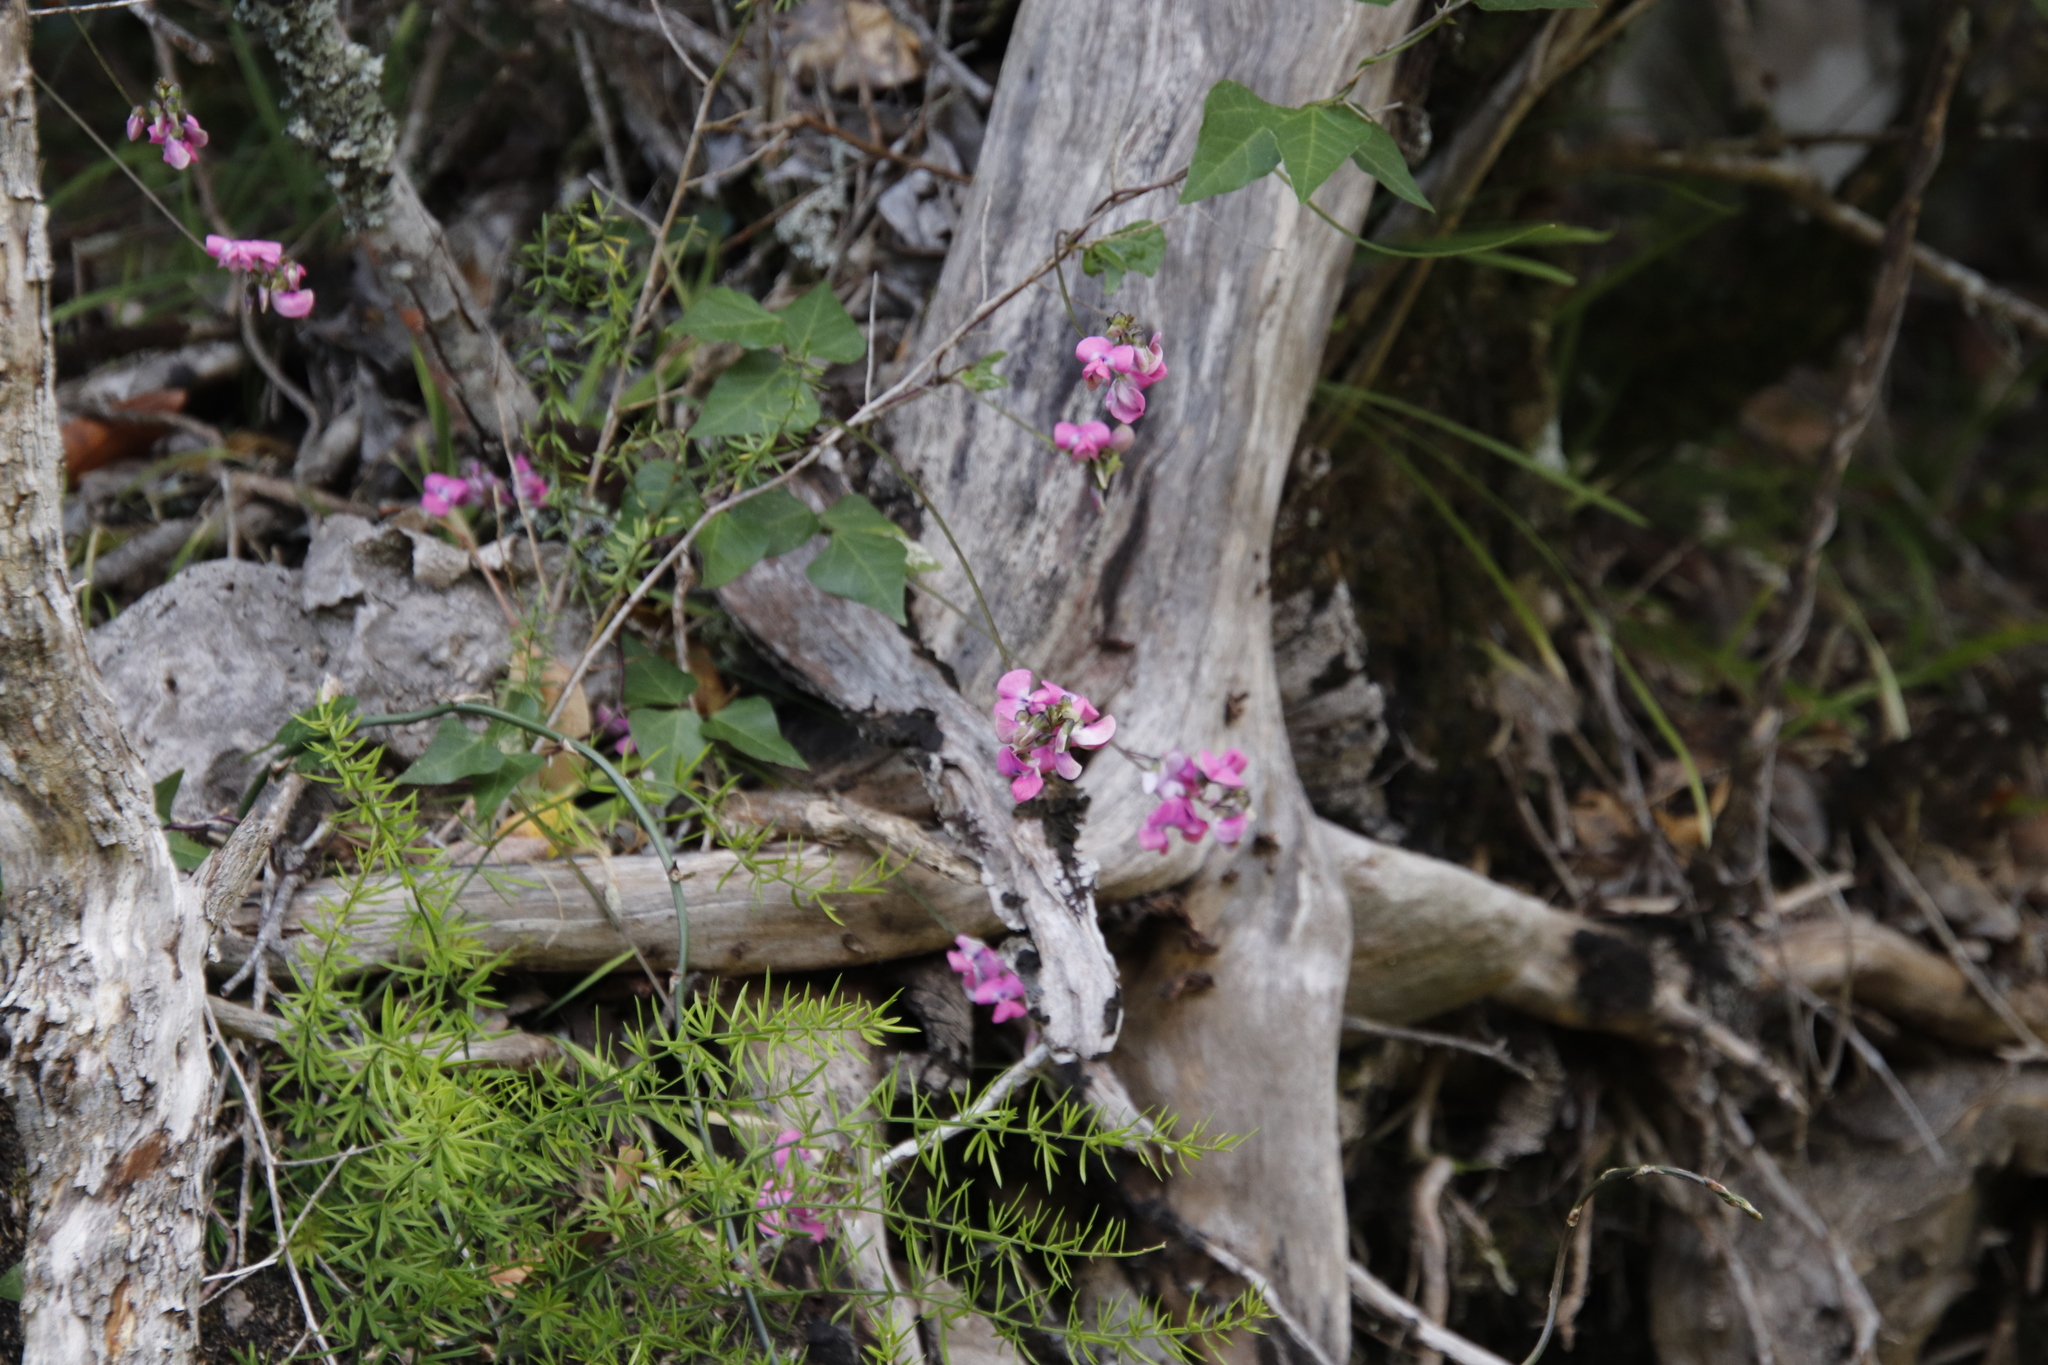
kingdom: Plantae
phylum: Tracheophyta
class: Magnoliopsida
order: Fabales
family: Fabaceae
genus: Dipogon
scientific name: Dipogon lignosus
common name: Okie bean
